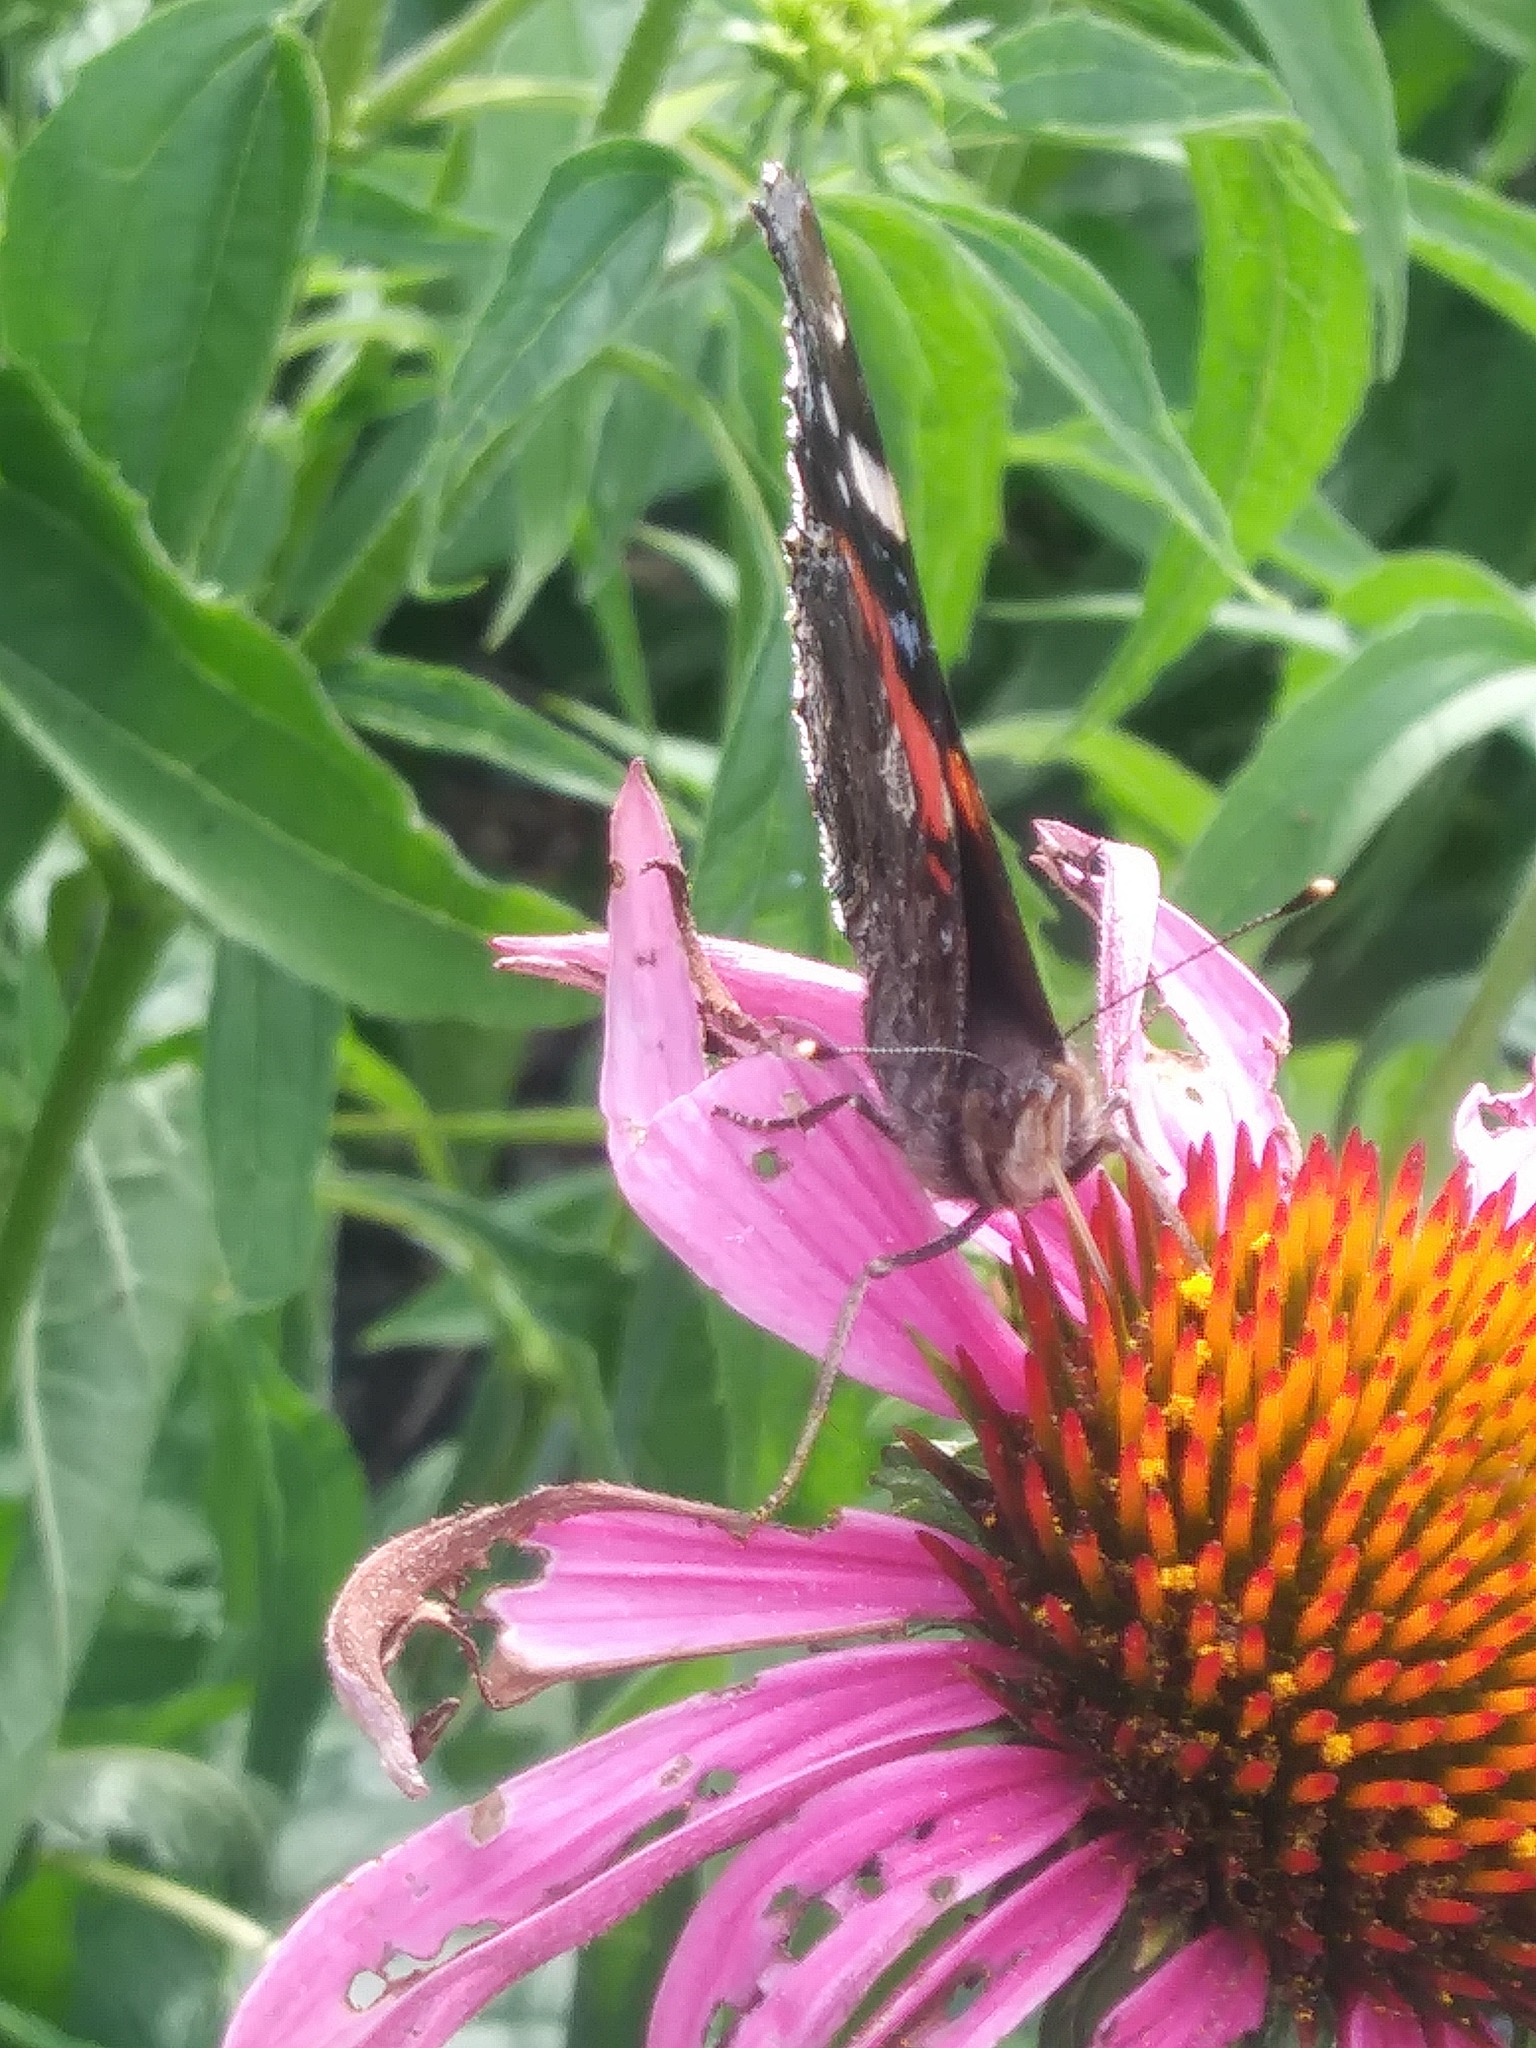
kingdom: Animalia
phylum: Arthropoda
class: Insecta
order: Lepidoptera
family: Nymphalidae
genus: Vanessa
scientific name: Vanessa atalanta
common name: Red admiral
